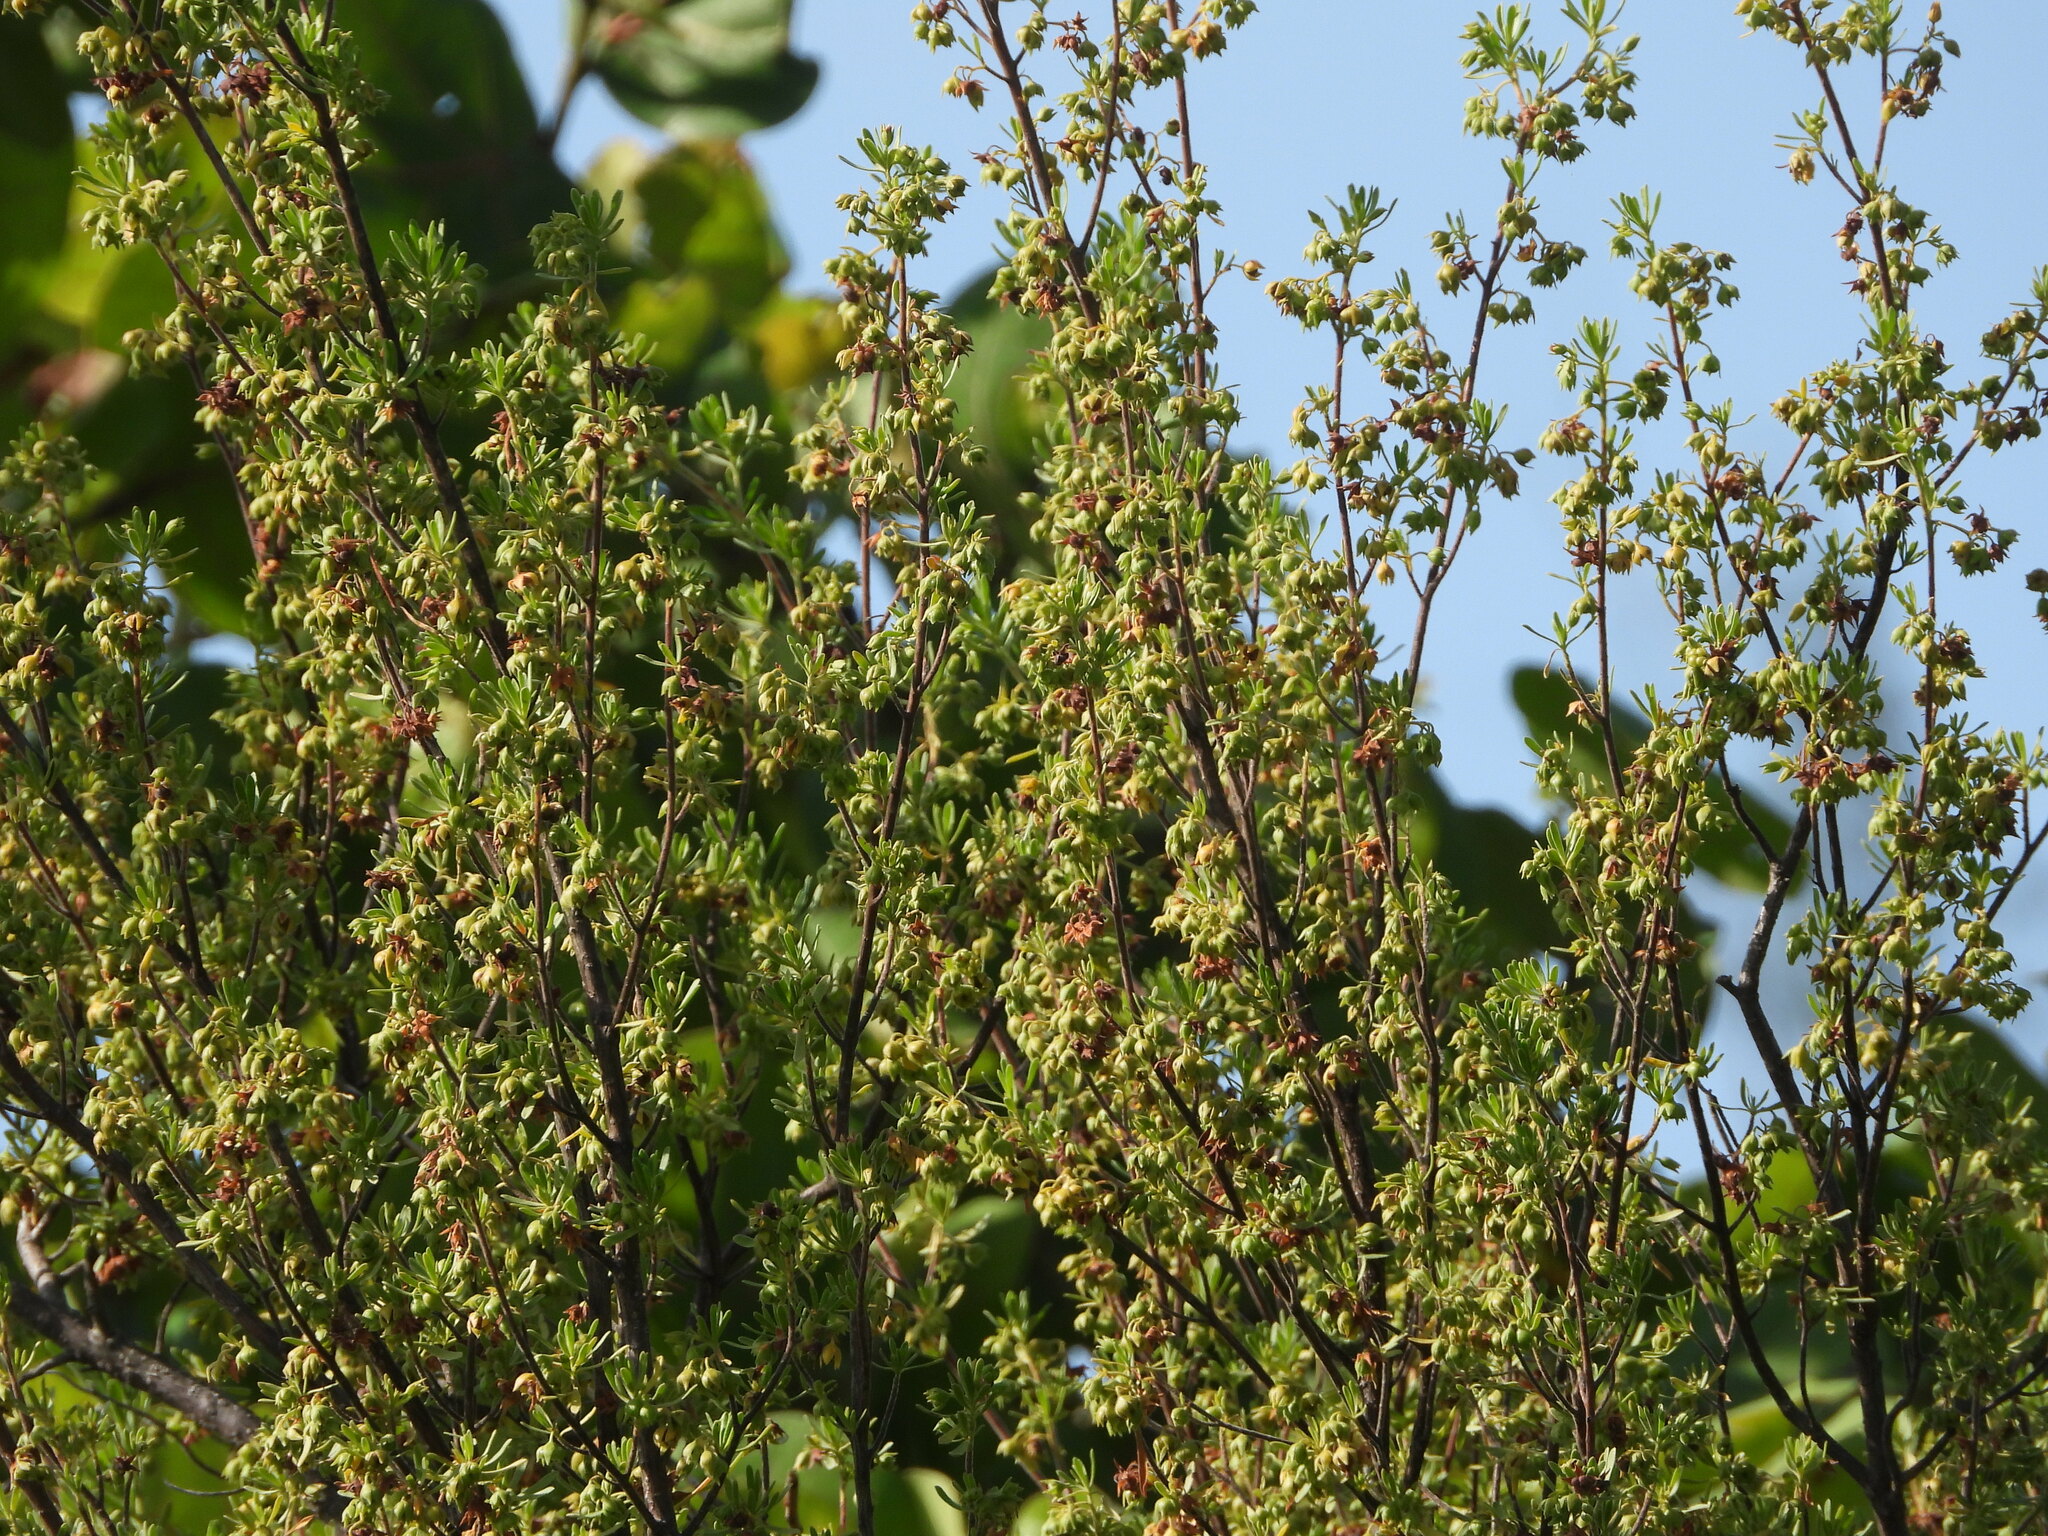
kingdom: Plantae
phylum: Tracheophyta
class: Magnoliopsida
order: Fabales
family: Surianaceae
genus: Suriana
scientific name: Suriana maritima
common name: Bay-cedar
